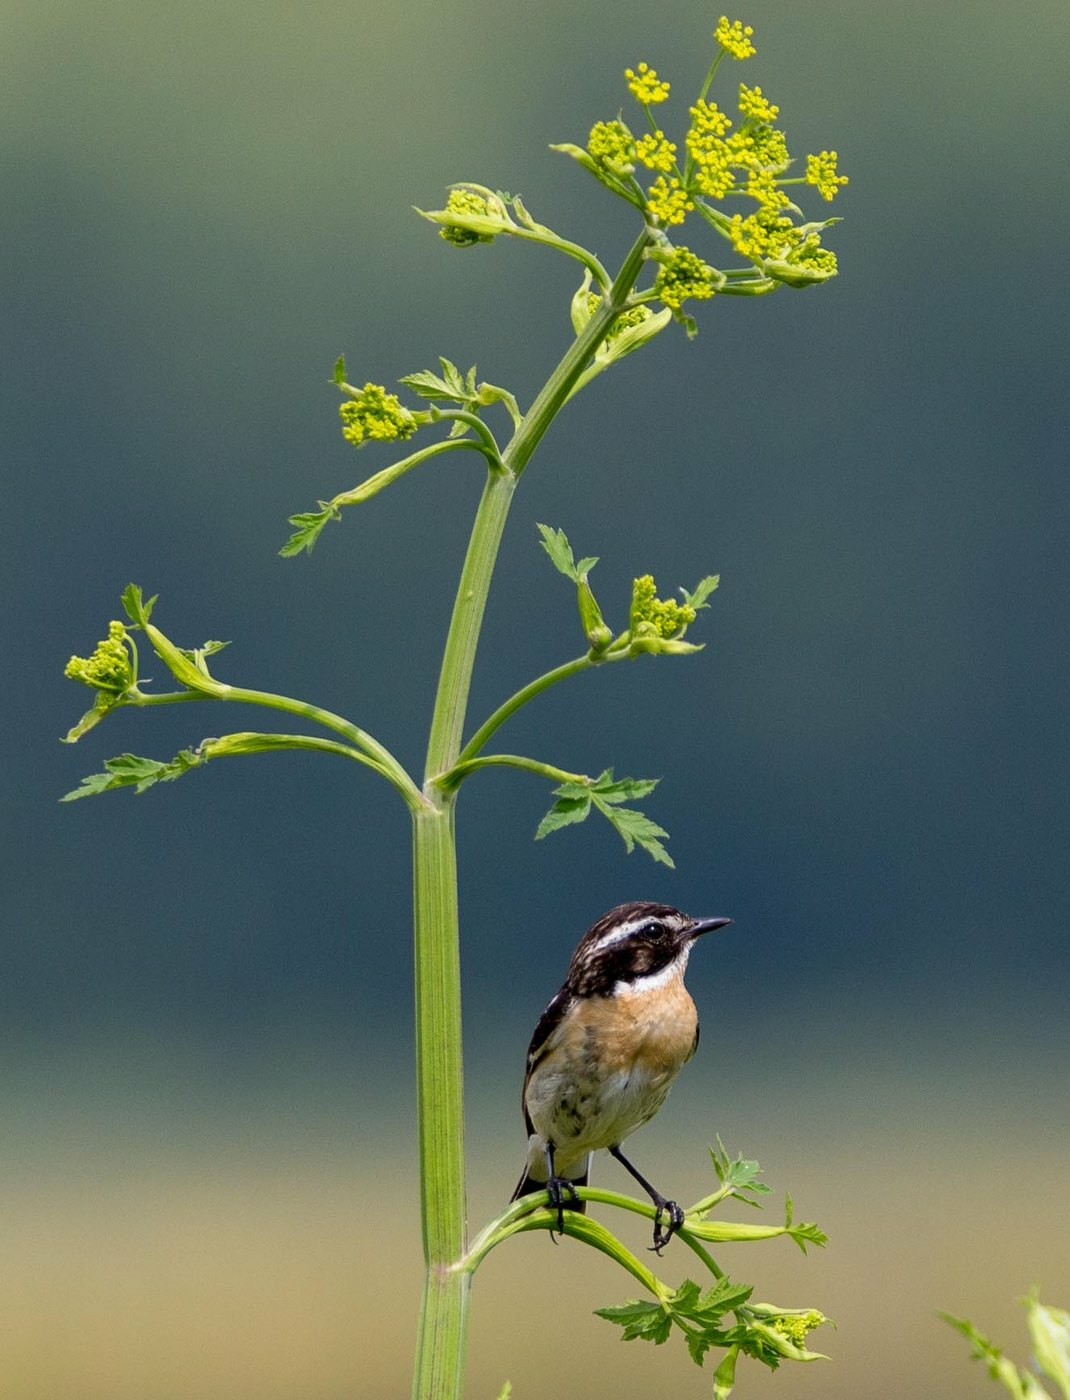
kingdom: Animalia
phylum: Chordata
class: Aves
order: Passeriformes
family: Muscicapidae
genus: Saxicola
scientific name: Saxicola rubetra
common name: Whinchat
